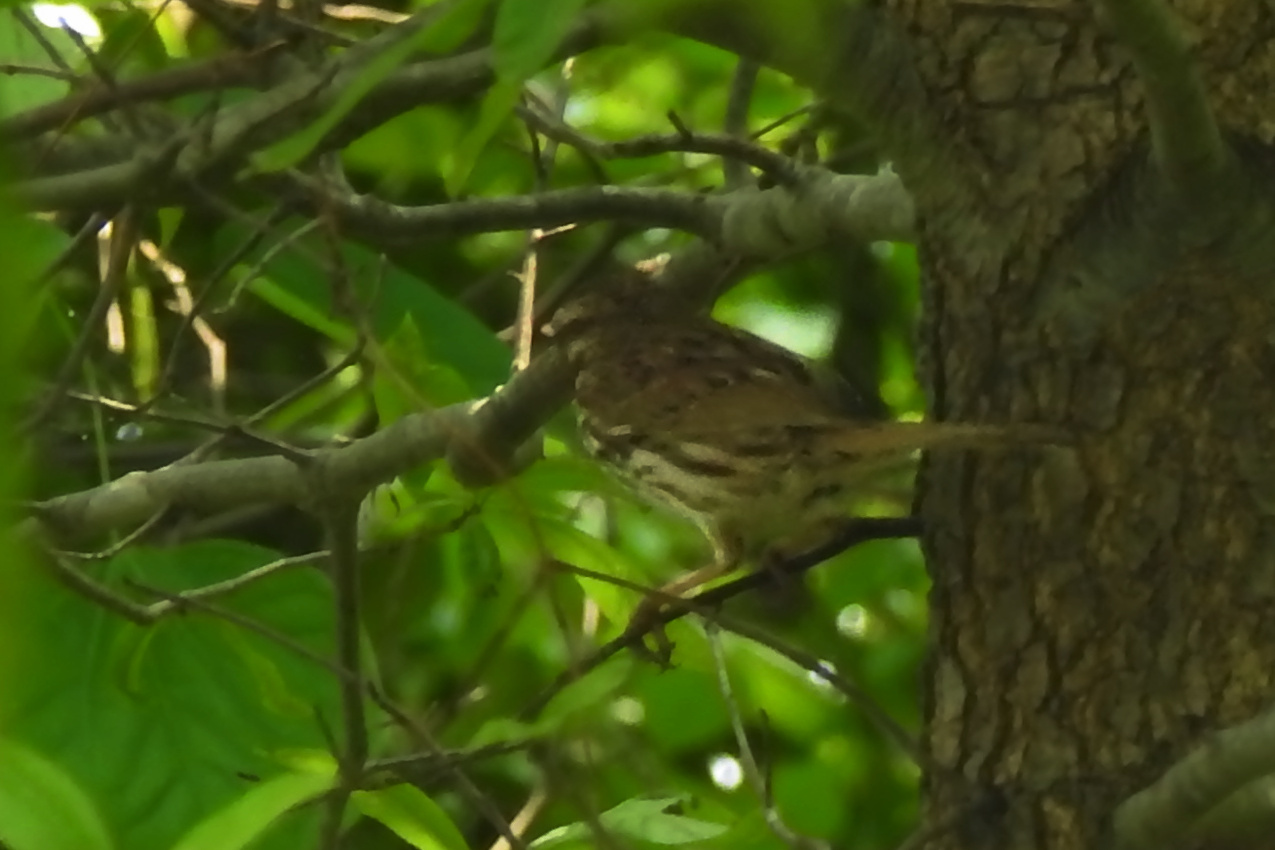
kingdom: Animalia
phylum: Chordata
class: Aves
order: Passeriformes
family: Passerellidae
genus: Melospiza
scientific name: Melospiza melodia
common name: Song sparrow
